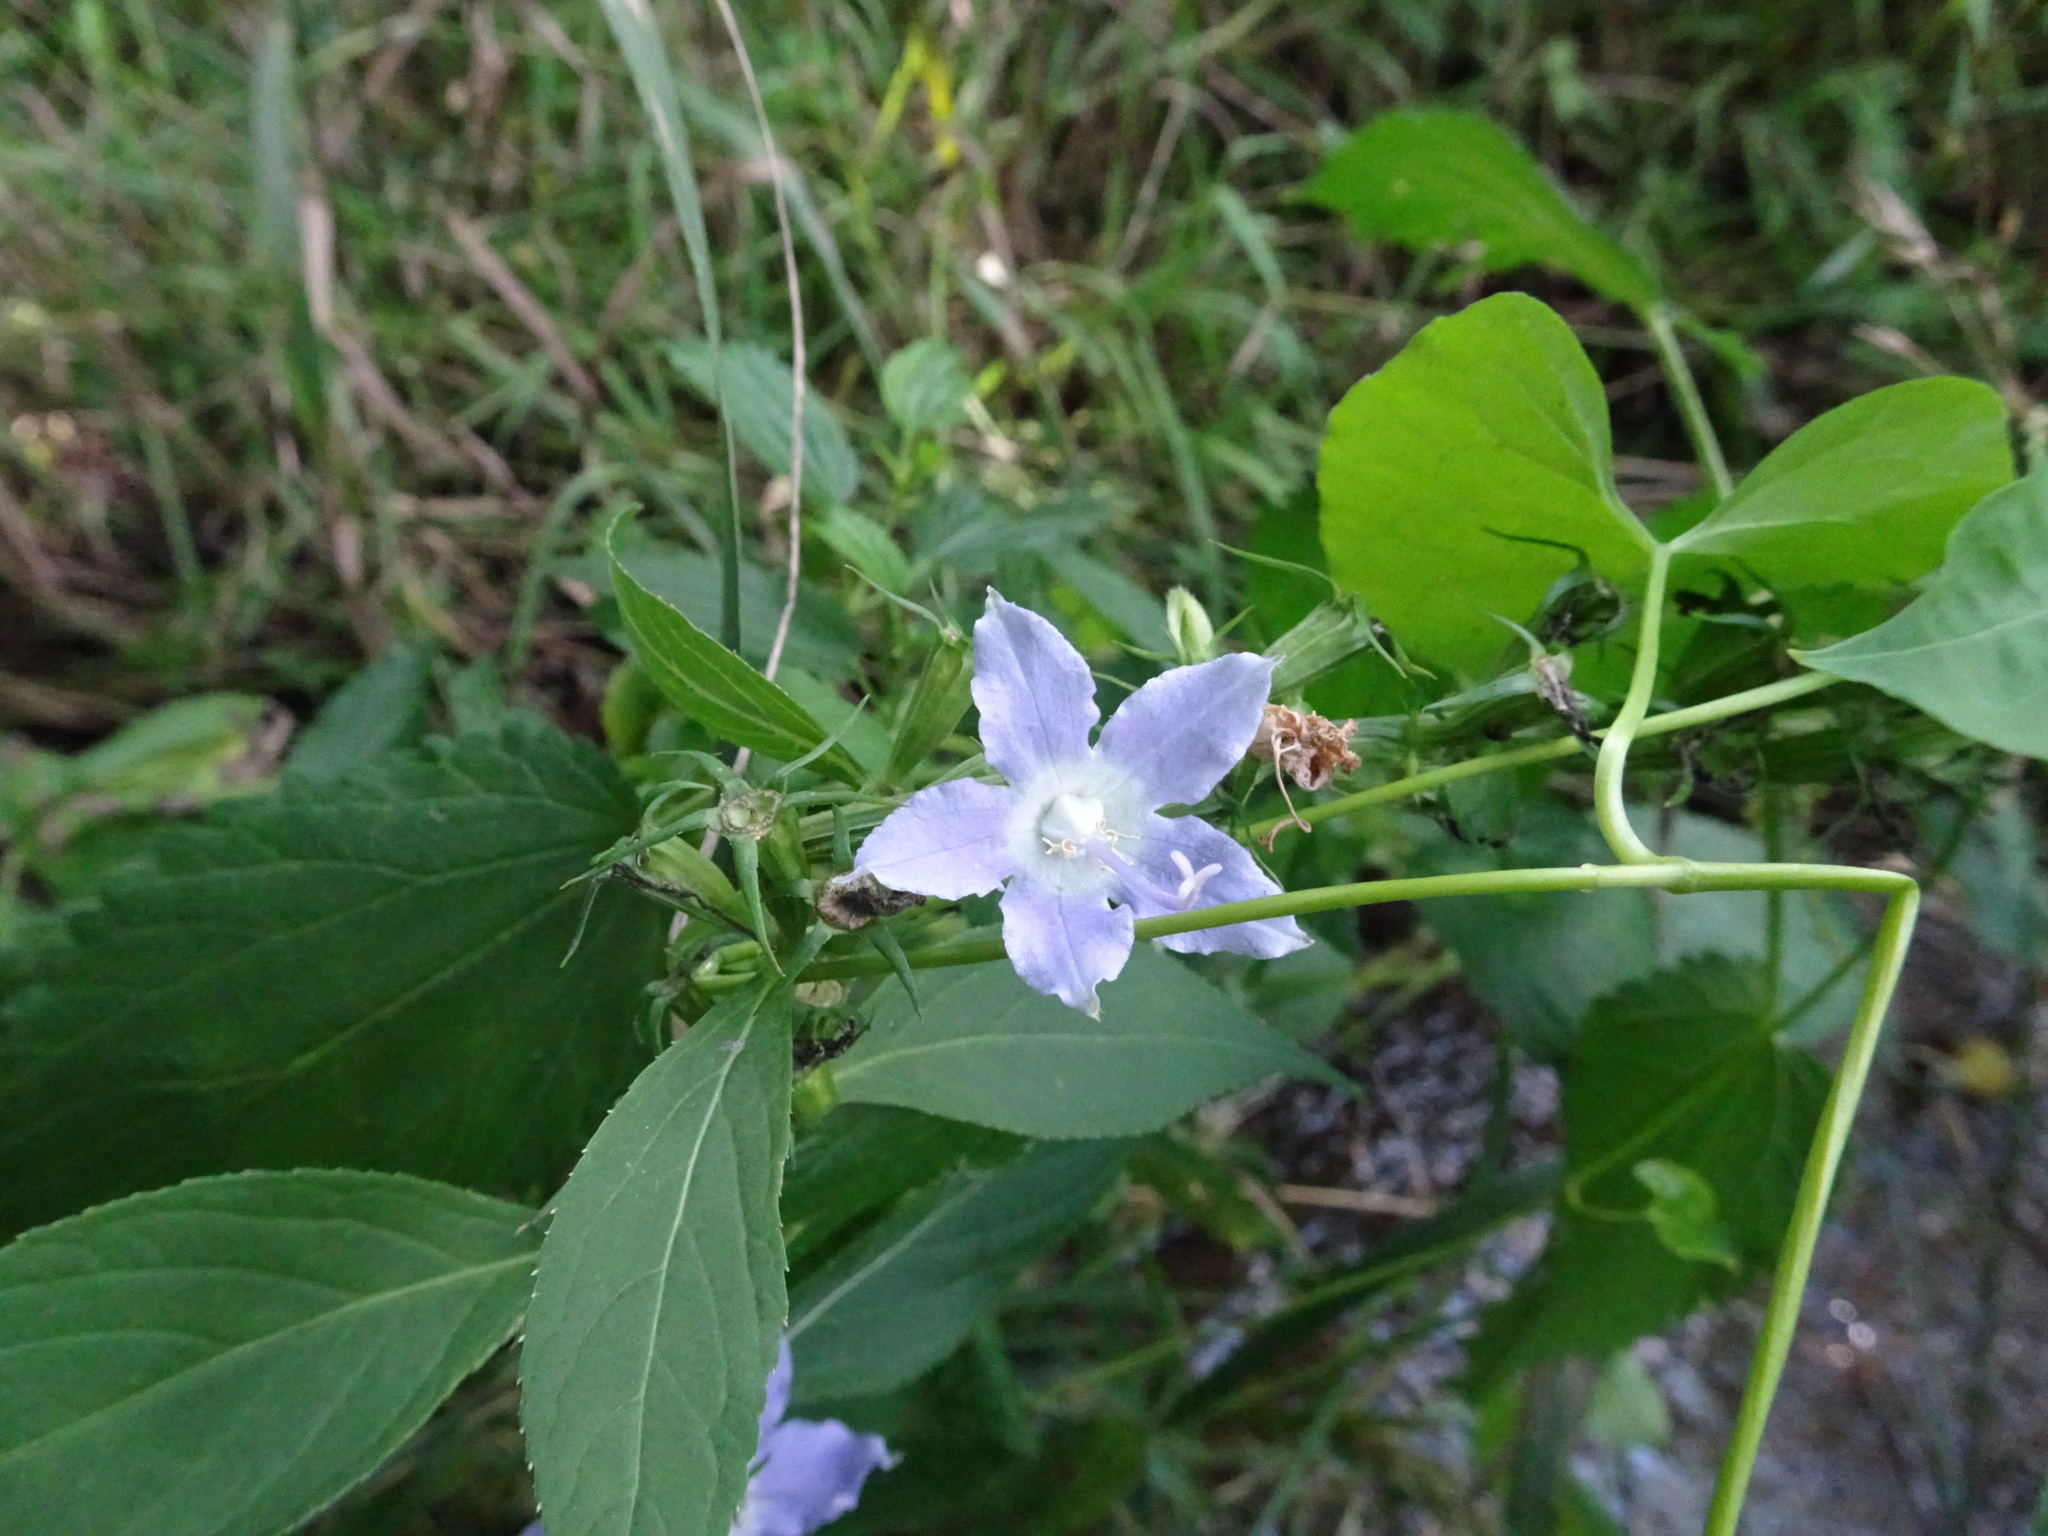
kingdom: Plantae
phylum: Tracheophyta
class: Magnoliopsida
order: Asterales
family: Campanulaceae
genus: Campanulastrum
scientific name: Campanulastrum americanum
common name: American bellflower
